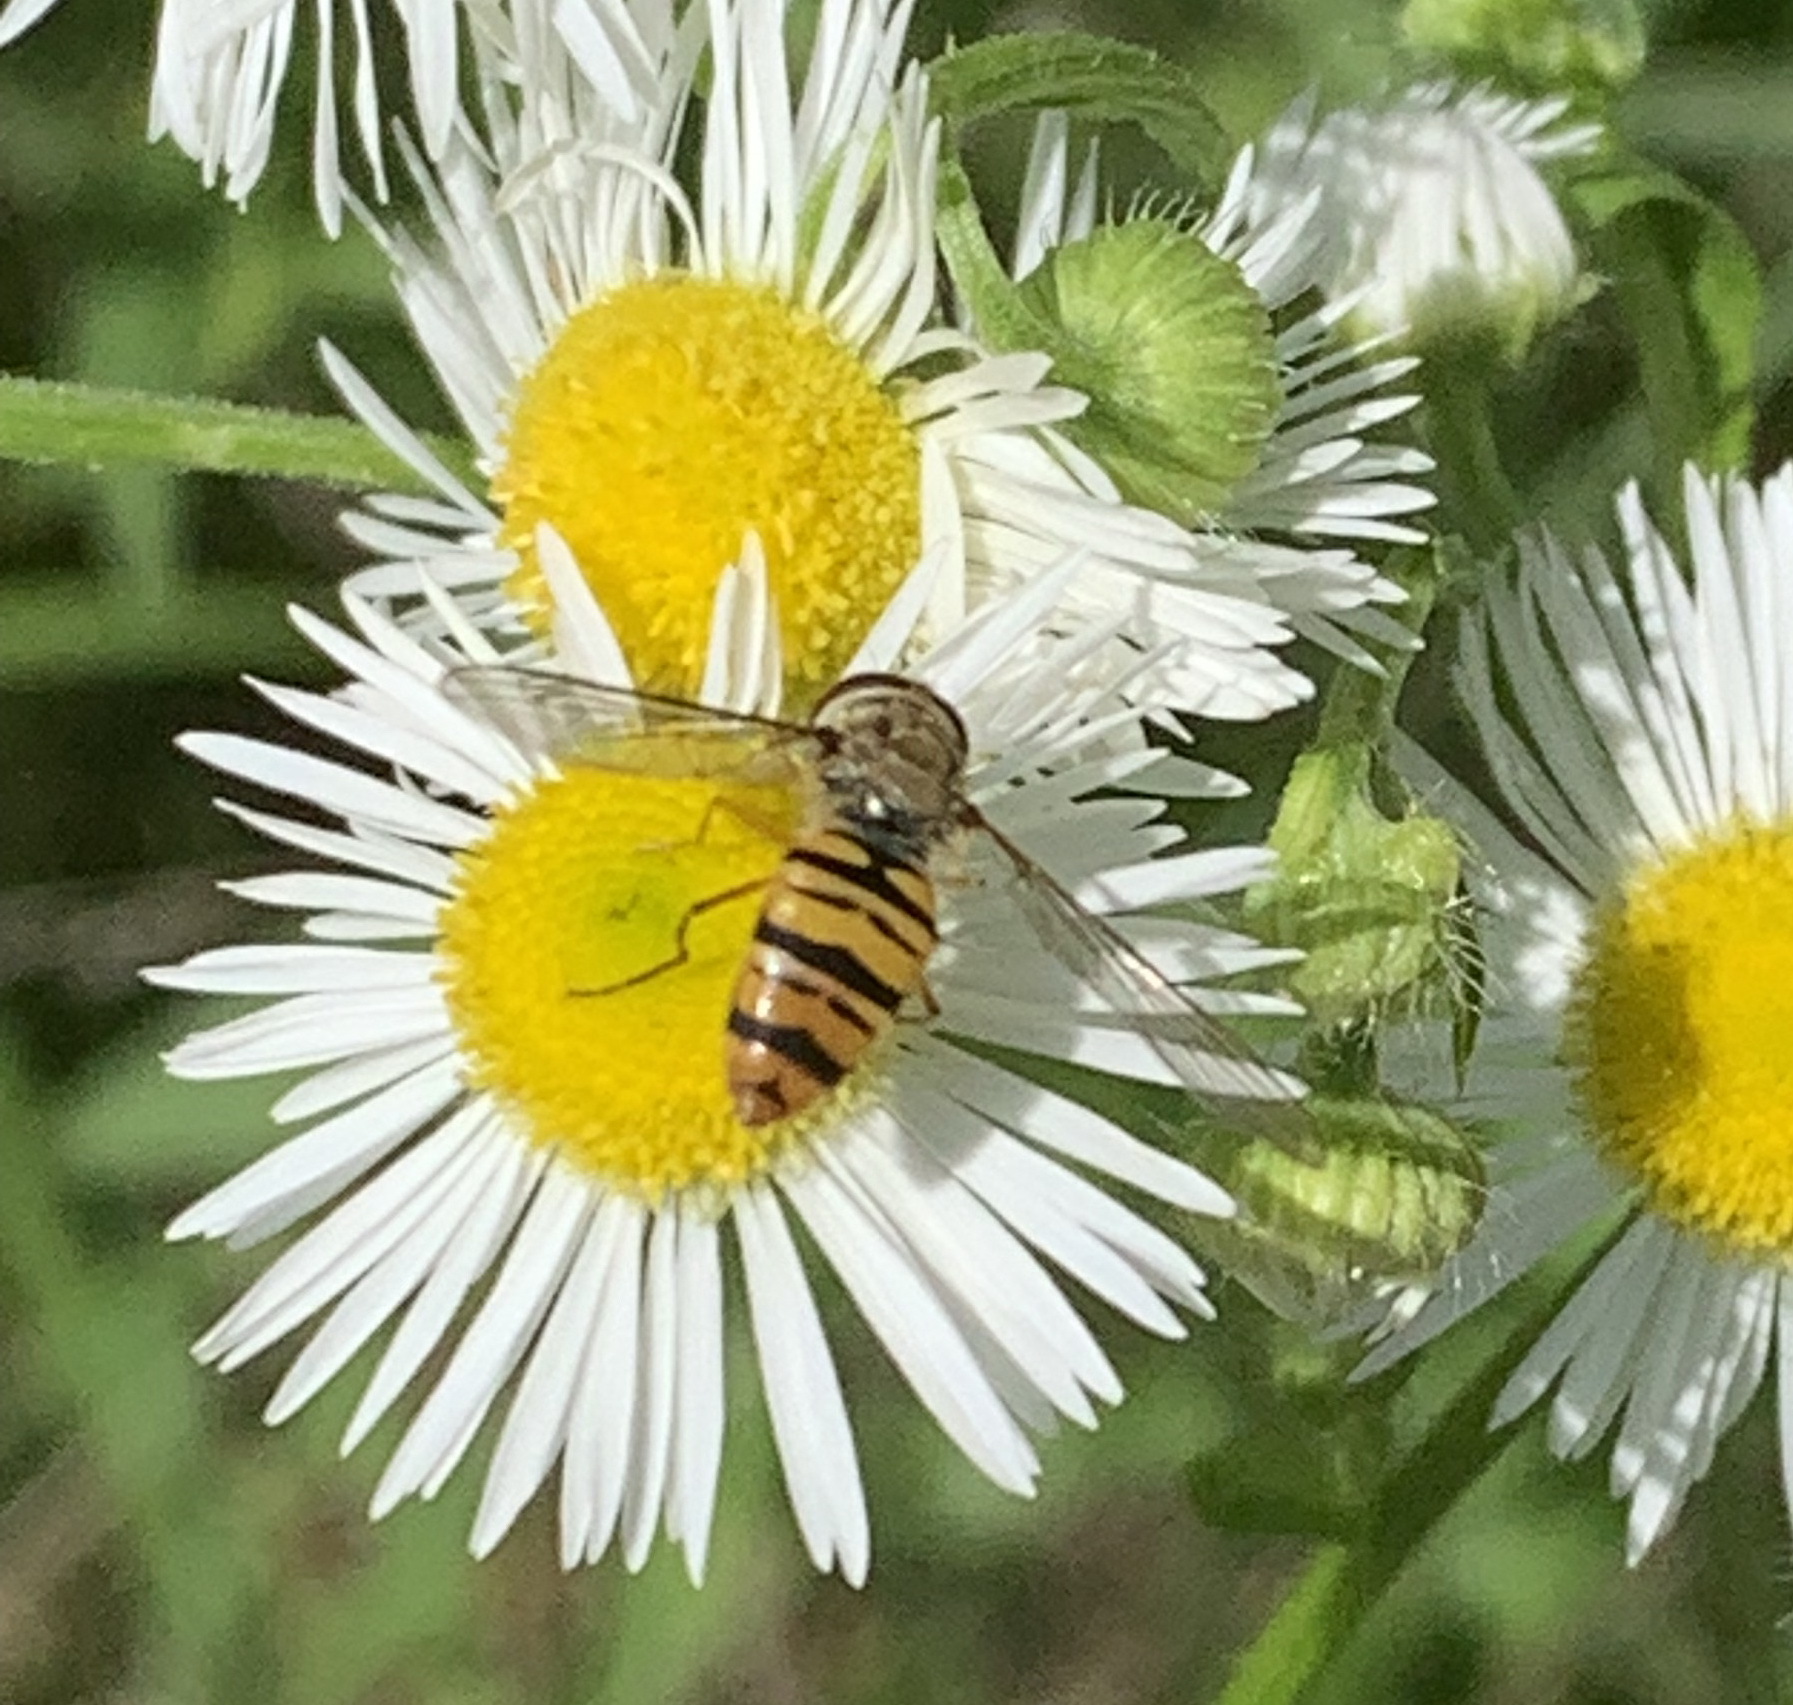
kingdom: Animalia
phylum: Arthropoda
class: Insecta
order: Diptera
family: Syrphidae
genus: Episyrphus
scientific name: Episyrphus balteatus
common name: Marmalade hoverfly
